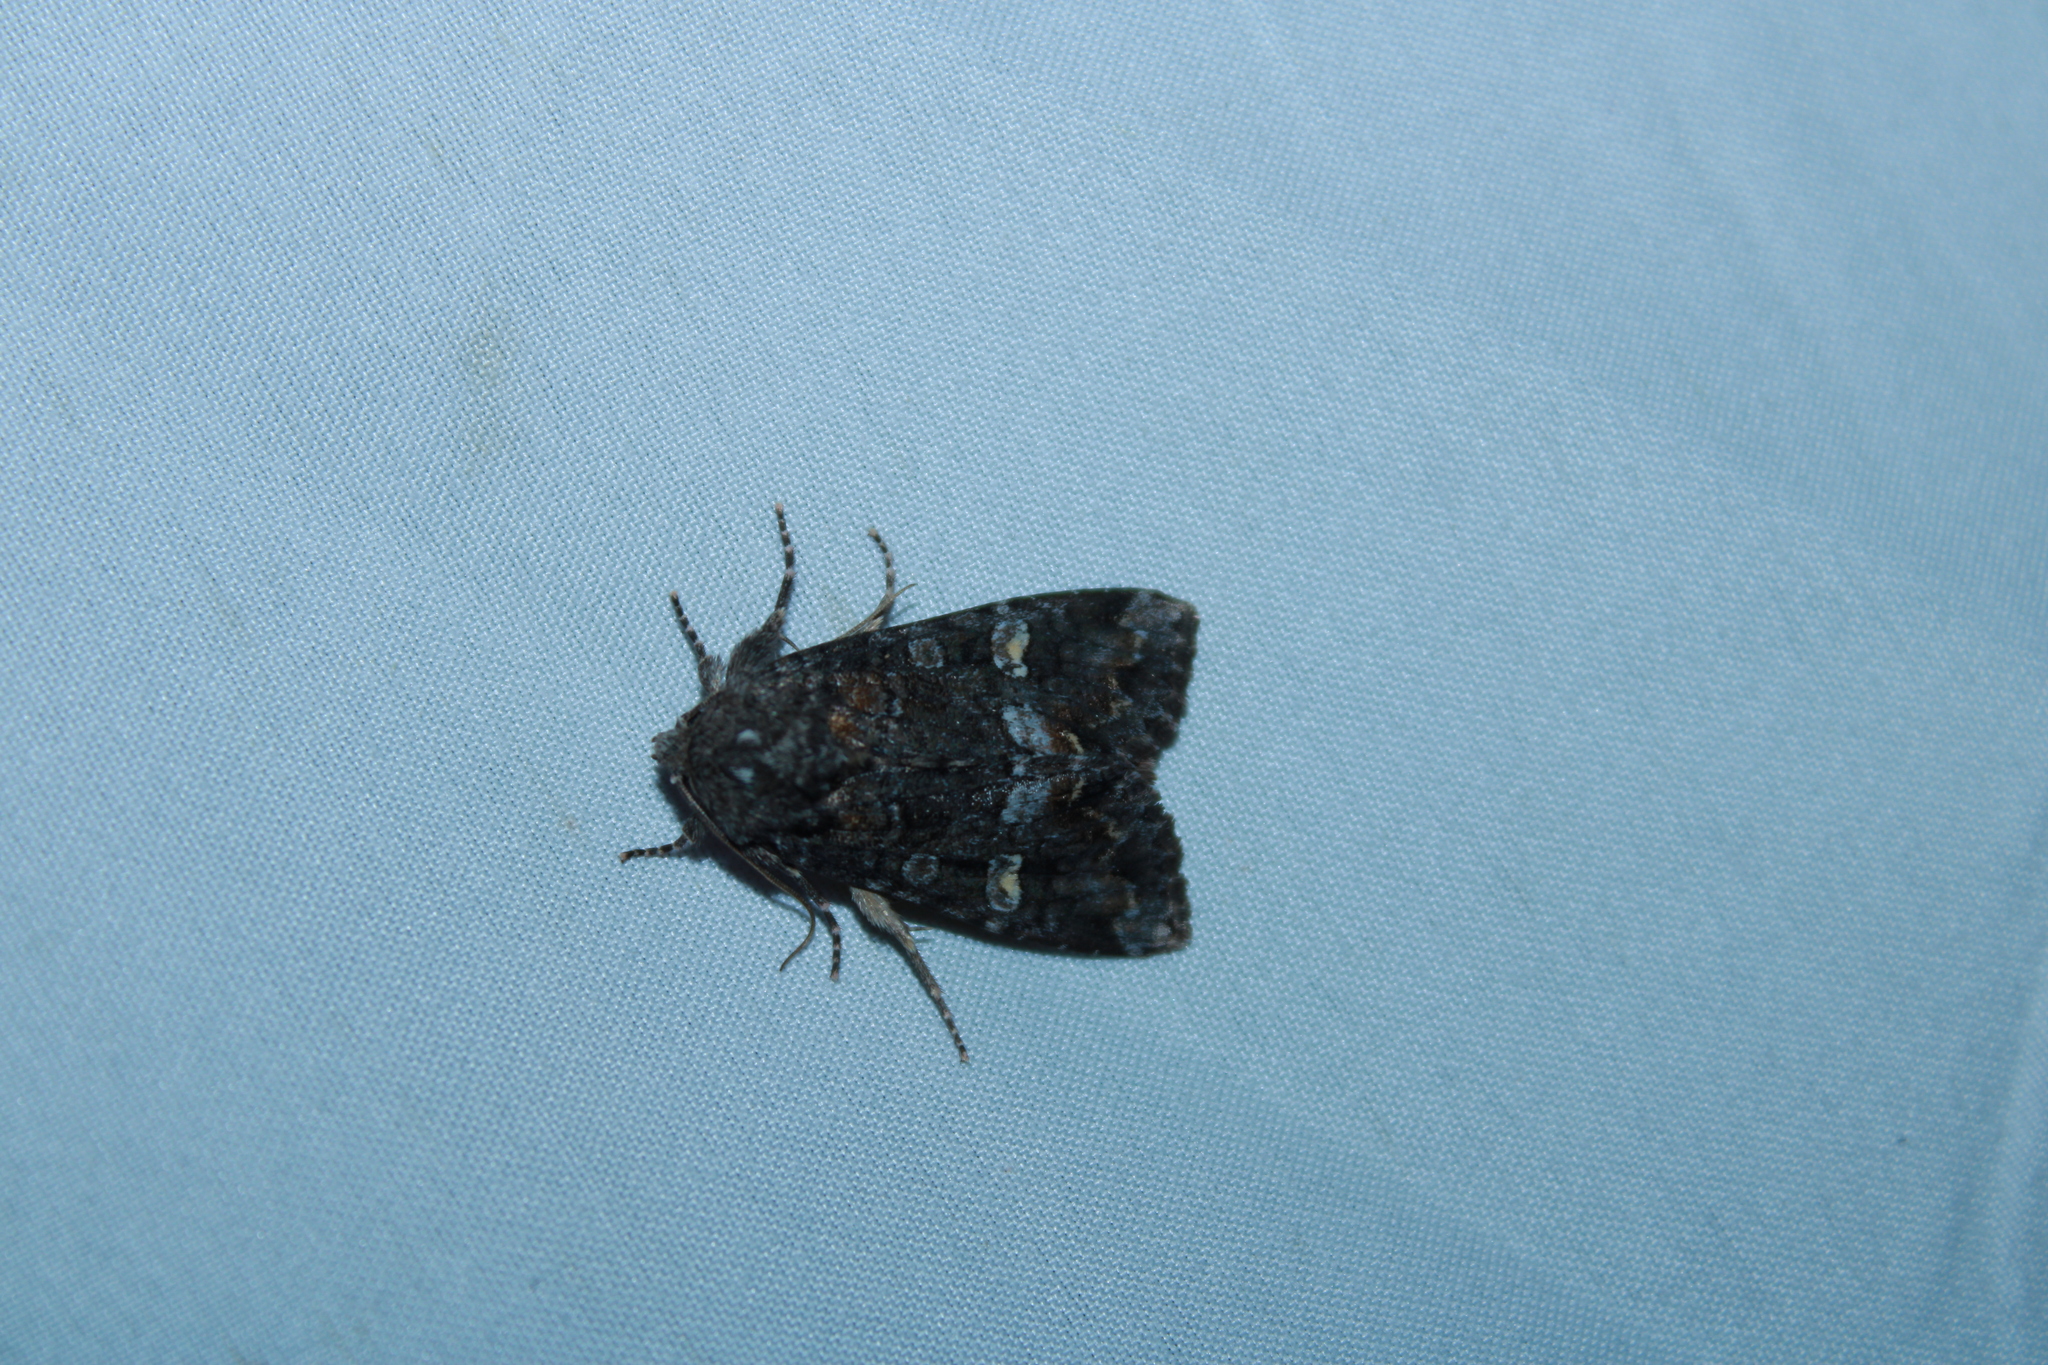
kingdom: Animalia
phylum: Arthropoda
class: Insecta
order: Lepidoptera
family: Noctuidae
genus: Spiramater
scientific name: Spiramater lutra
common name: Otter spiramater moth
